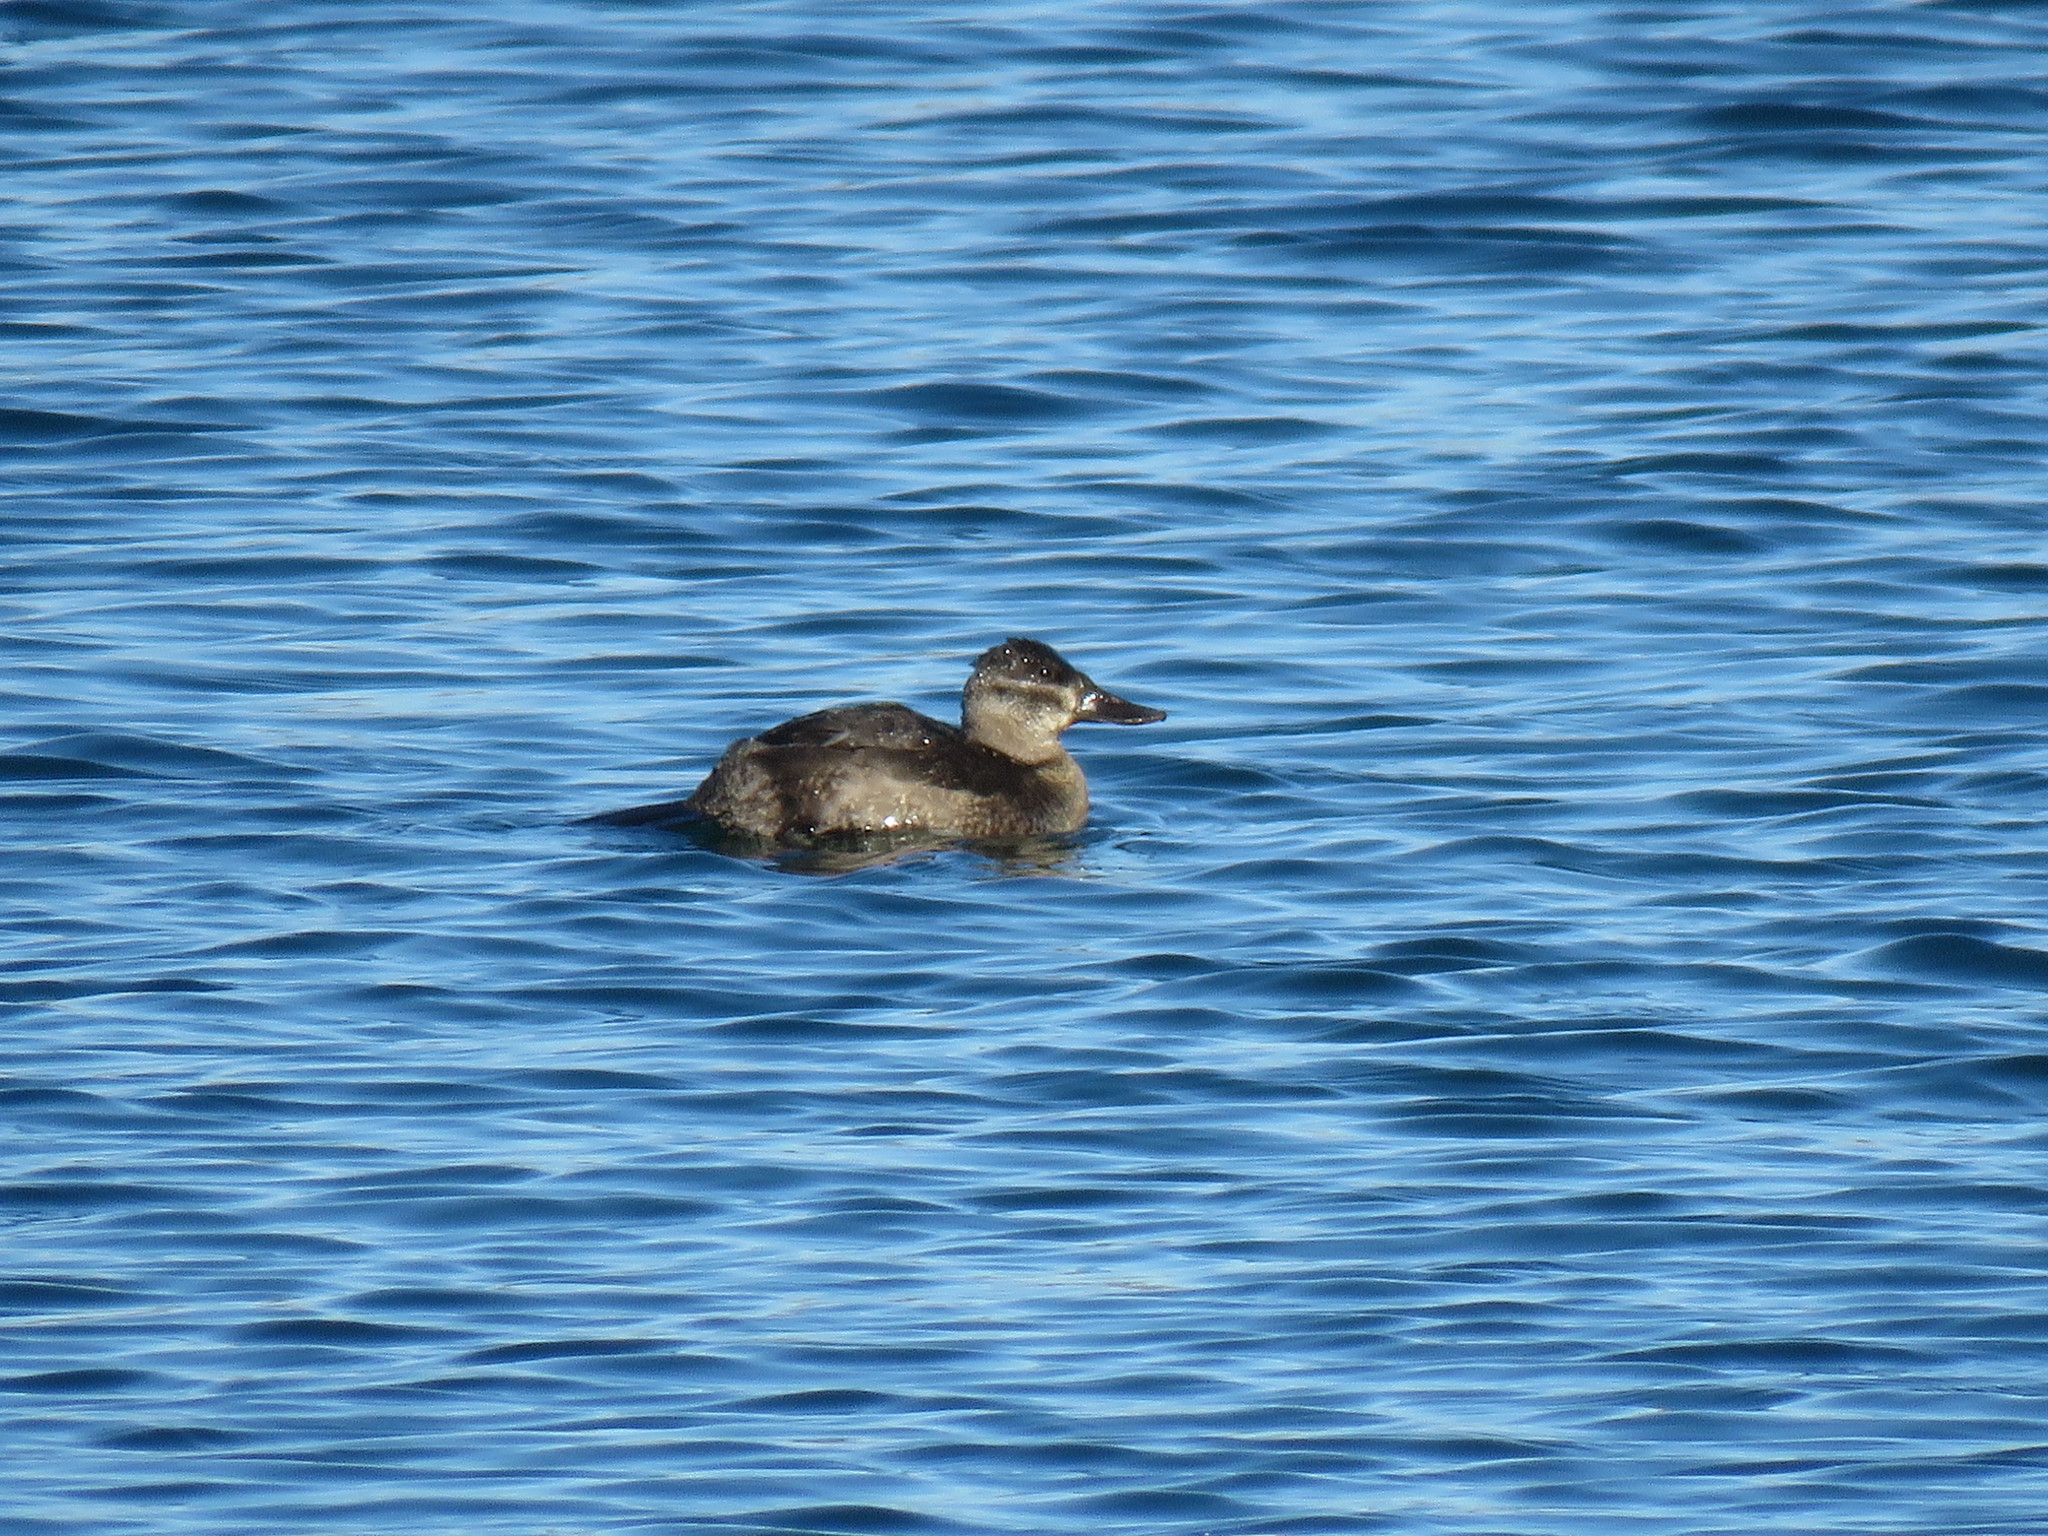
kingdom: Animalia
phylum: Chordata
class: Aves
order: Anseriformes
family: Anatidae
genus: Oxyura
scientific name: Oxyura jamaicensis
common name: Ruddy duck
